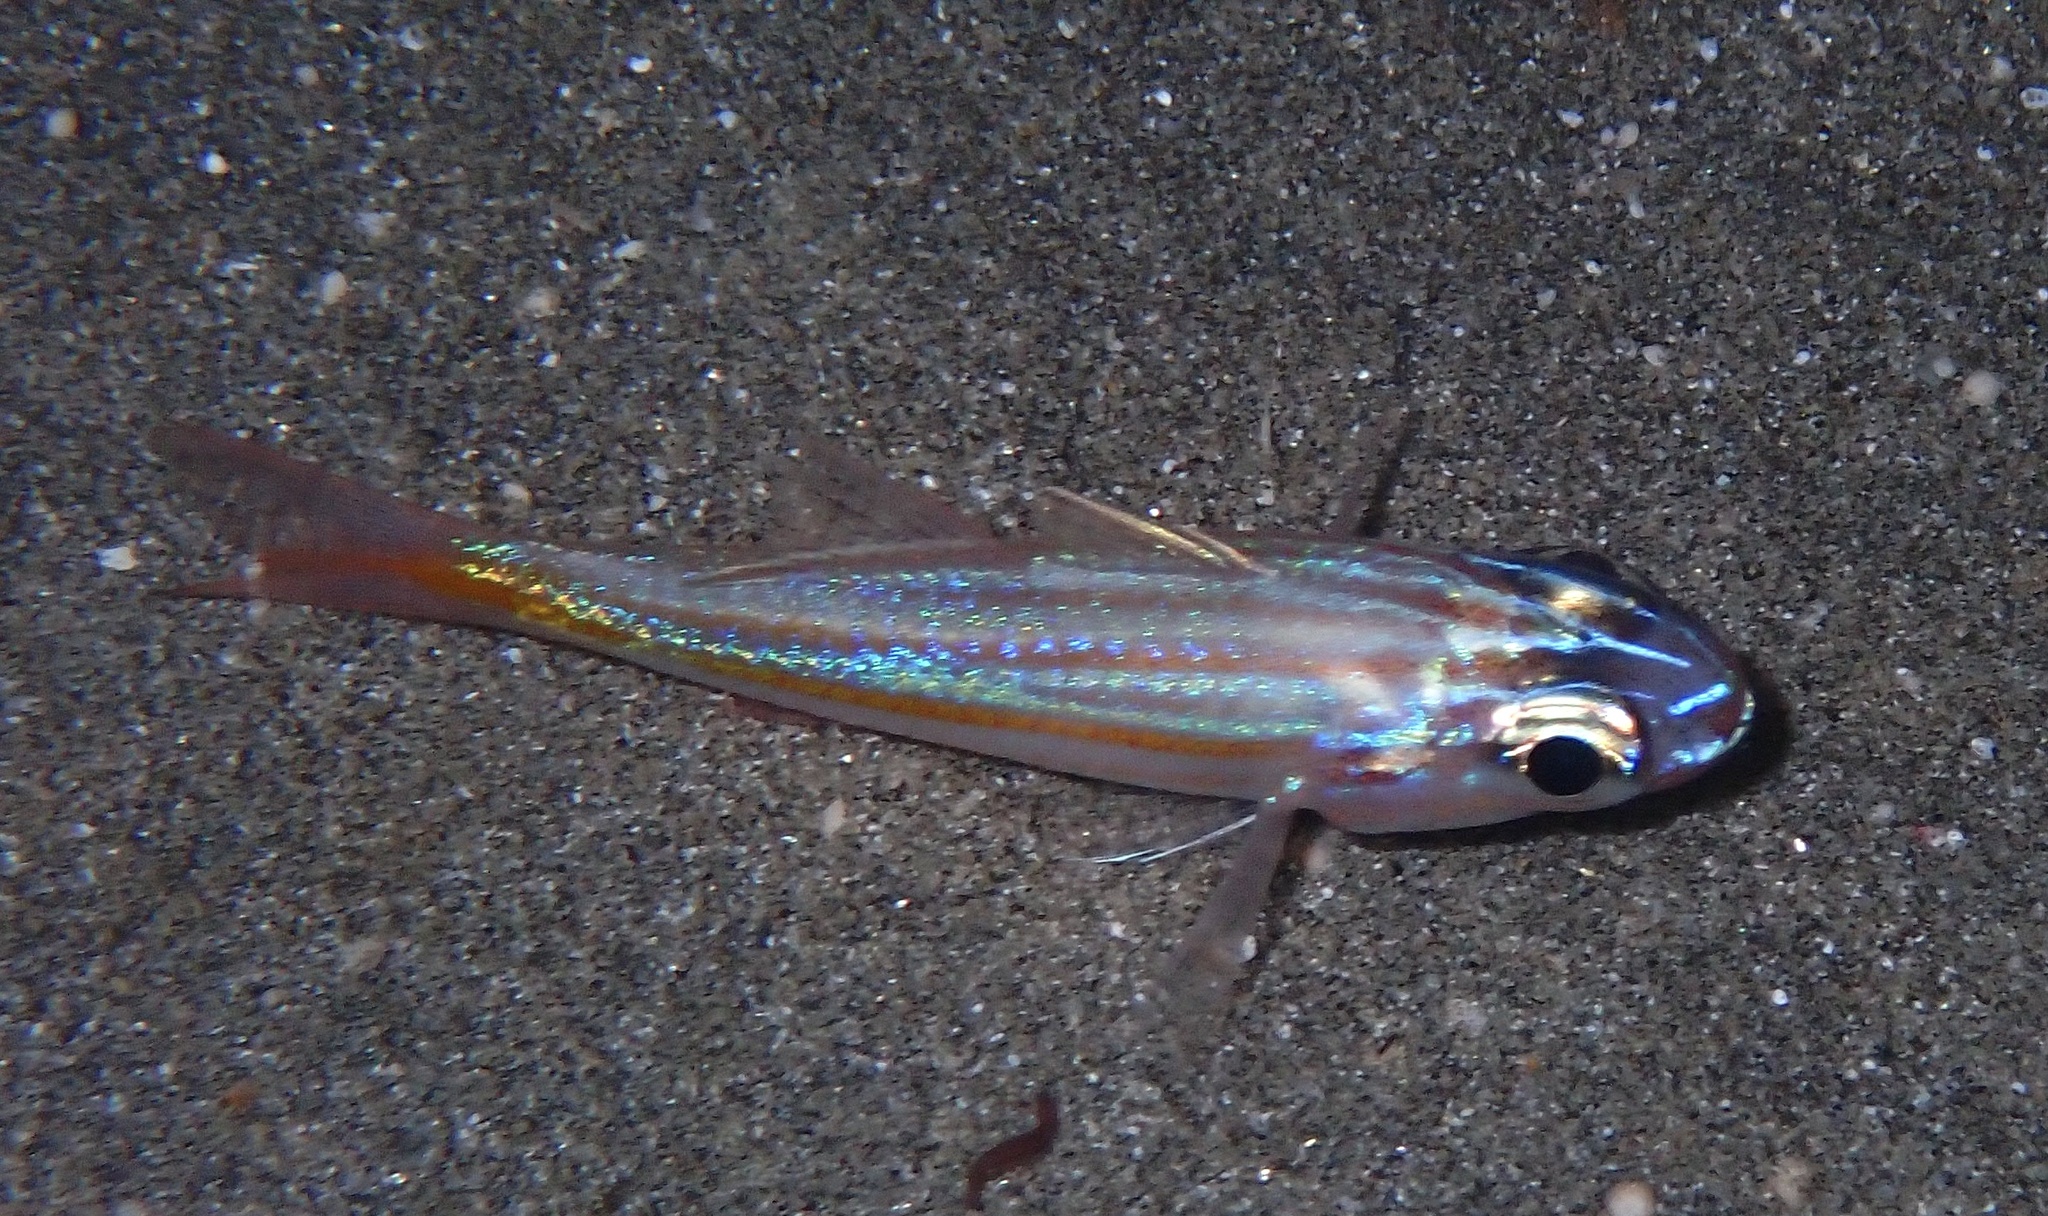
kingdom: Animalia
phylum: Chordata
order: Perciformes
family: Apogonidae
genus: Ostorhinchus
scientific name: Ostorhinchus cyanosoma
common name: Yellow-striped cardinalfish
